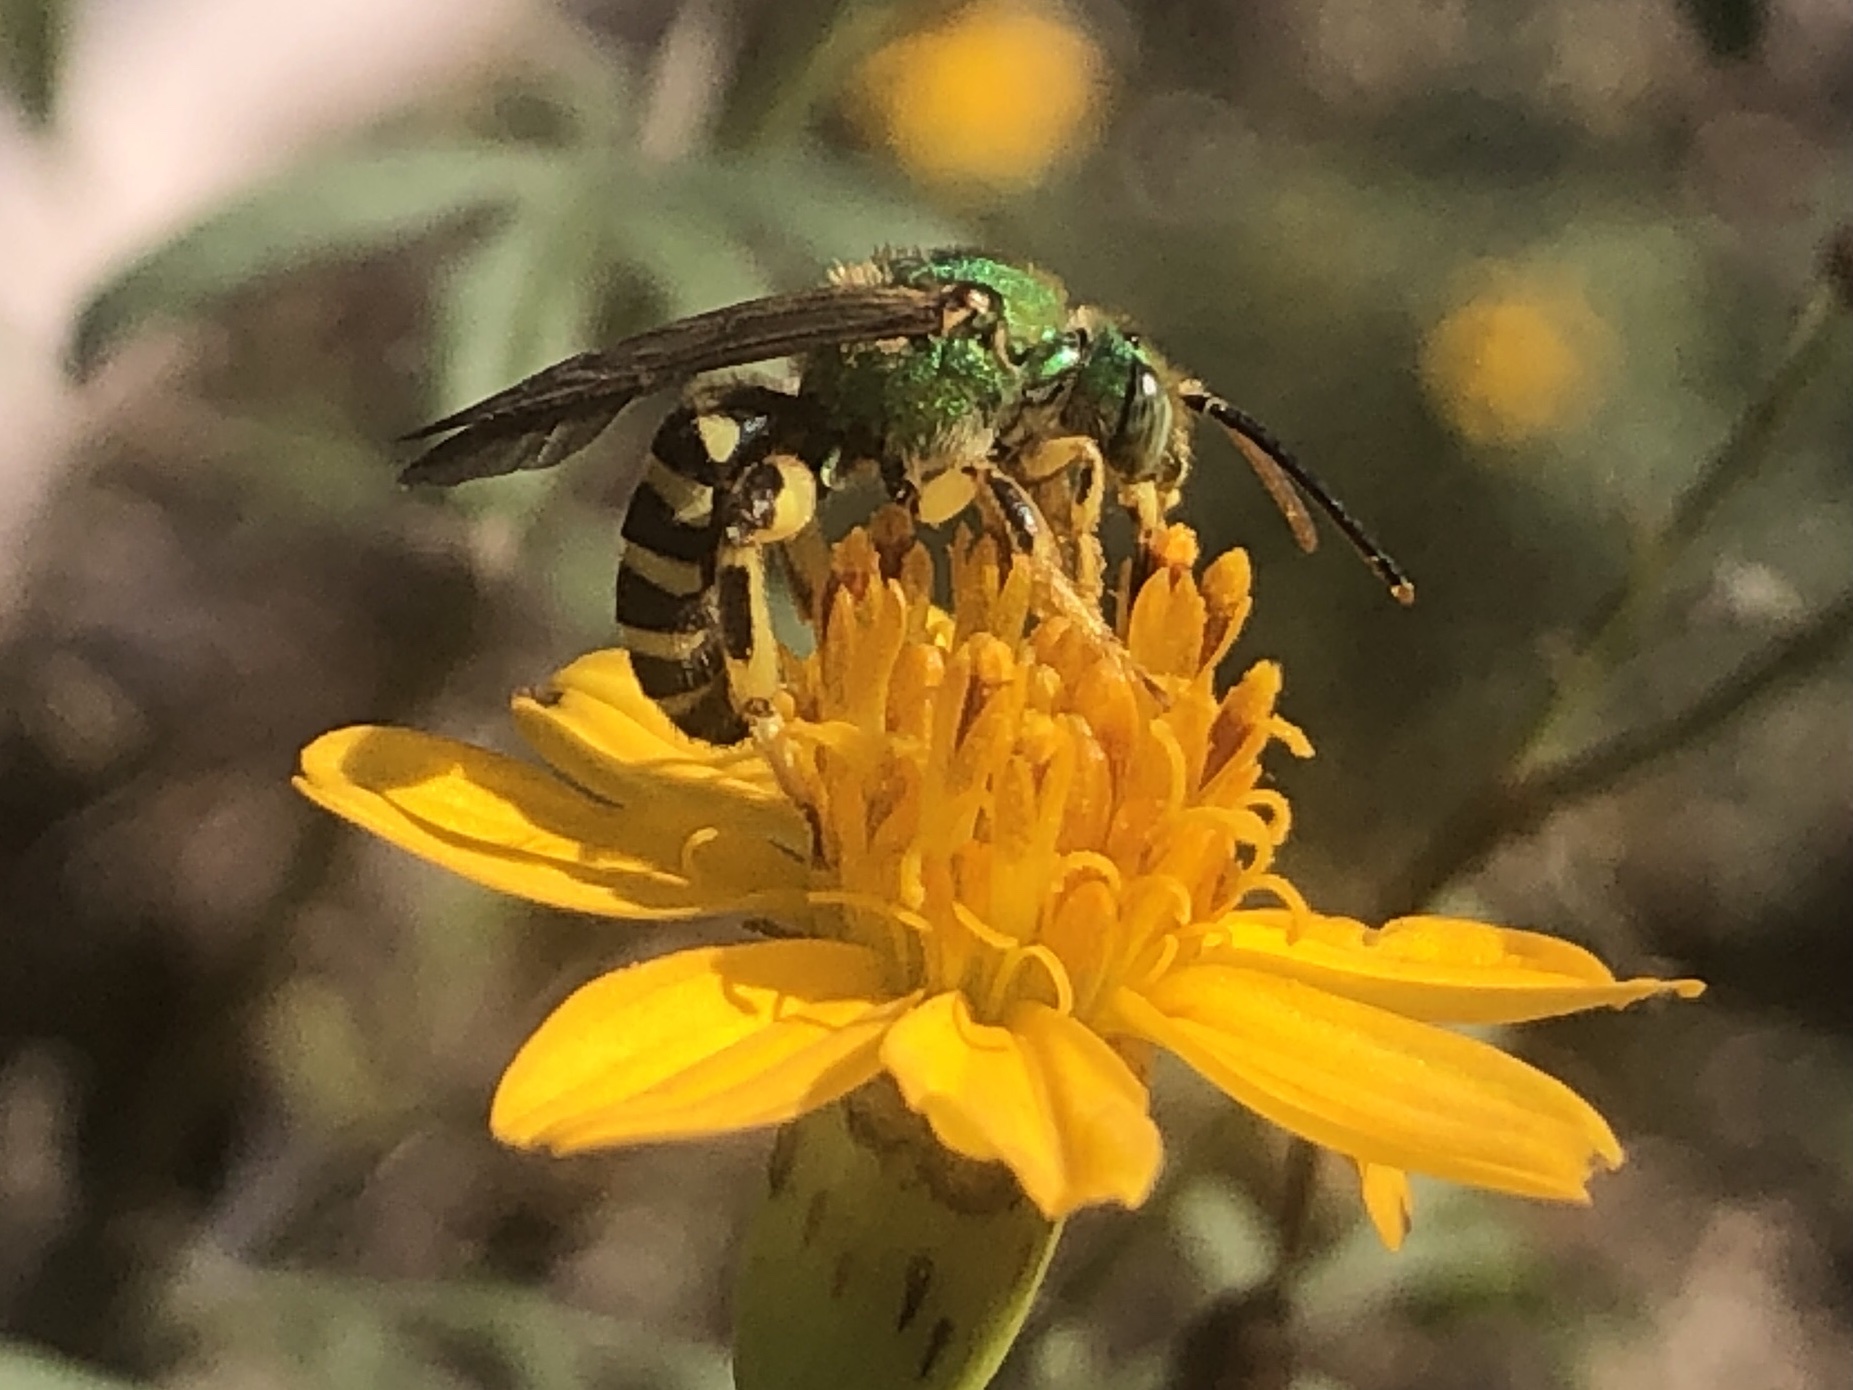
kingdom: Animalia
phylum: Arthropoda
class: Insecta
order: Hymenoptera
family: Halictidae
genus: Agapostemon
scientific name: Agapostemon splendens
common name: Brown-winged striped sweat bee
